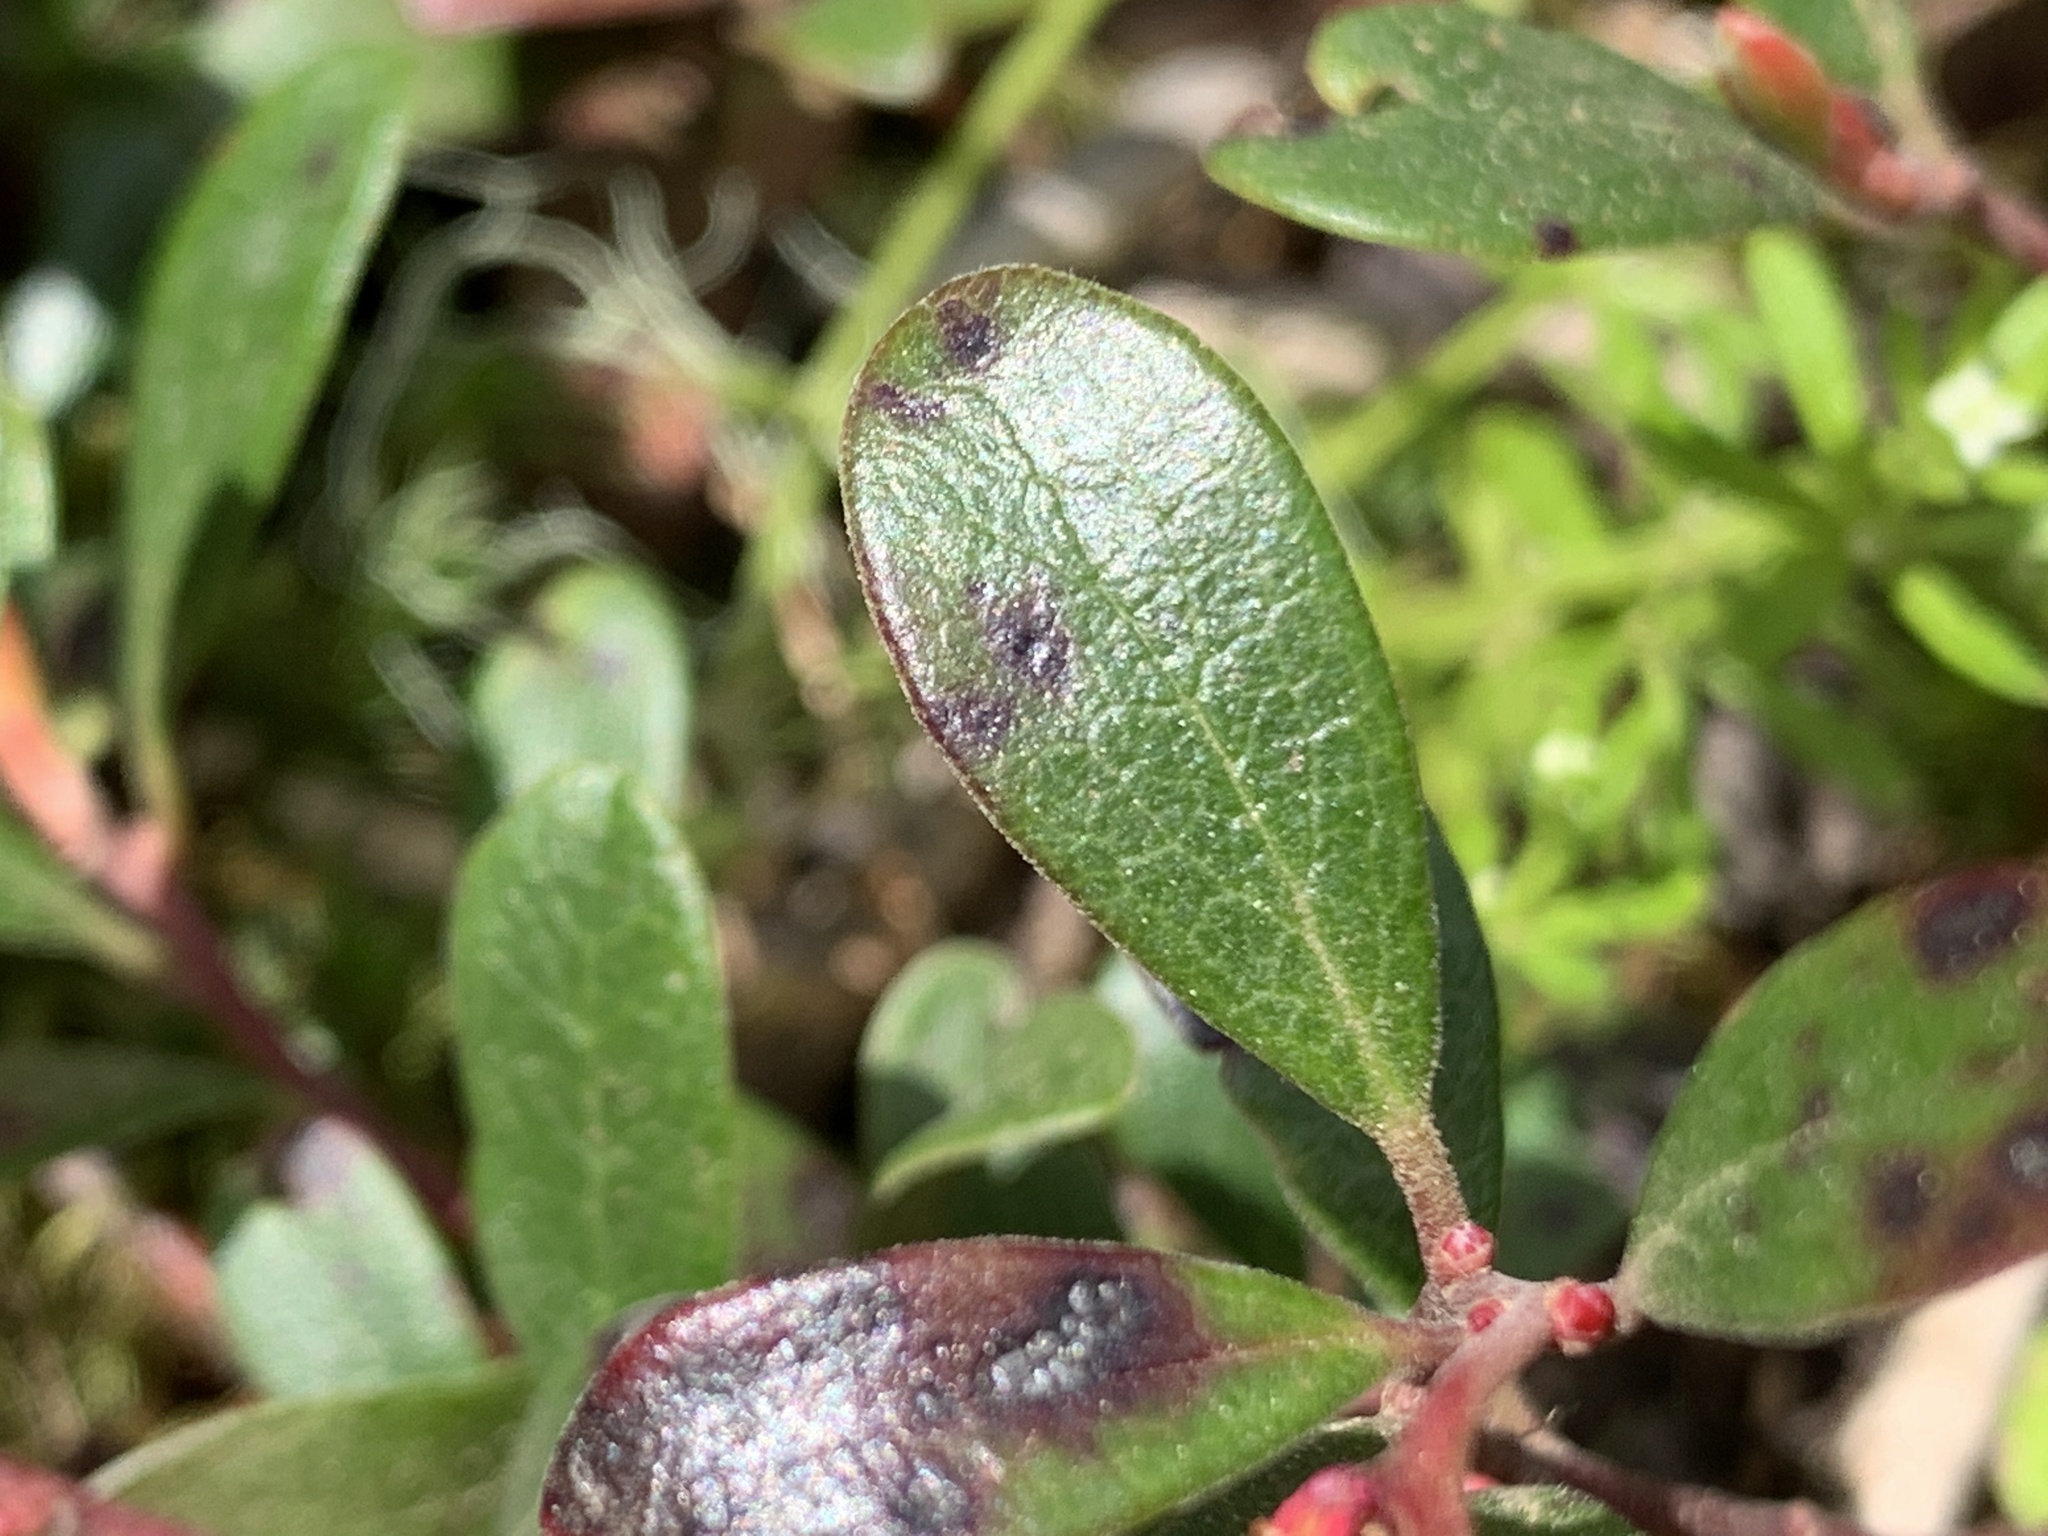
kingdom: Plantae
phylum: Tracheophyta
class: Magnoliopsida
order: Ericales
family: Ericaceae
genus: Arctostaphylos
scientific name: Arctostaphylos uva-ursi
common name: Bearberry
